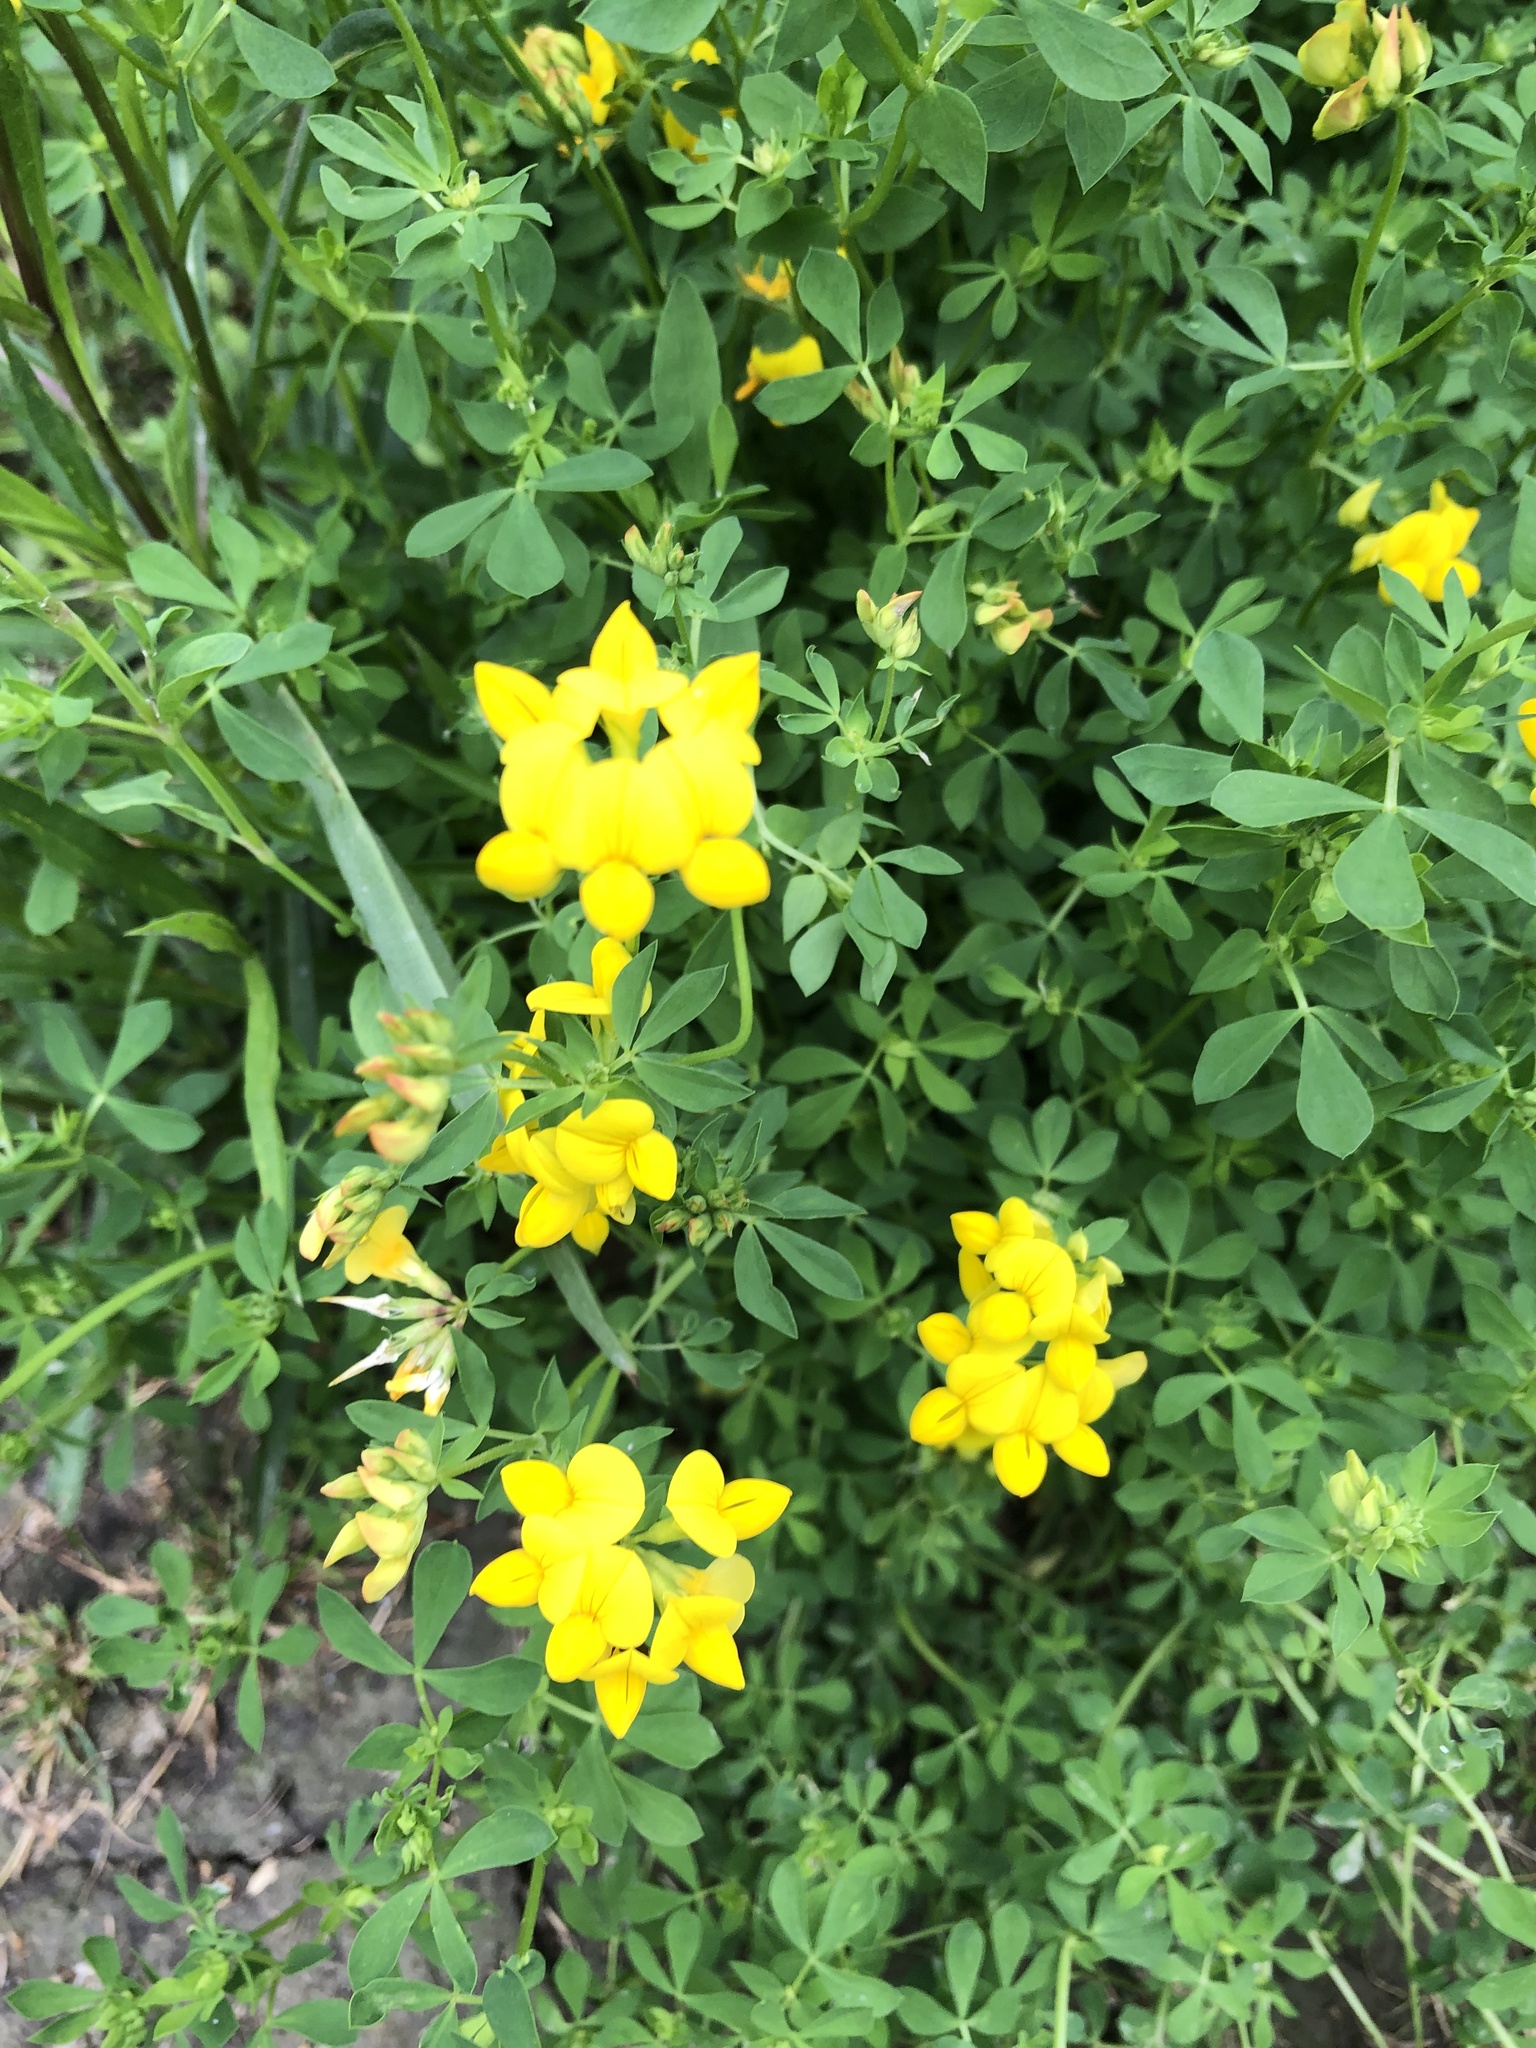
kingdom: Plantae
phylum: Tracheophyta
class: Magnoliopsida
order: Fabales
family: Fabaceae
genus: Lotus
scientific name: Lotus corniculatus
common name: Common bird's-foot-trefoil
